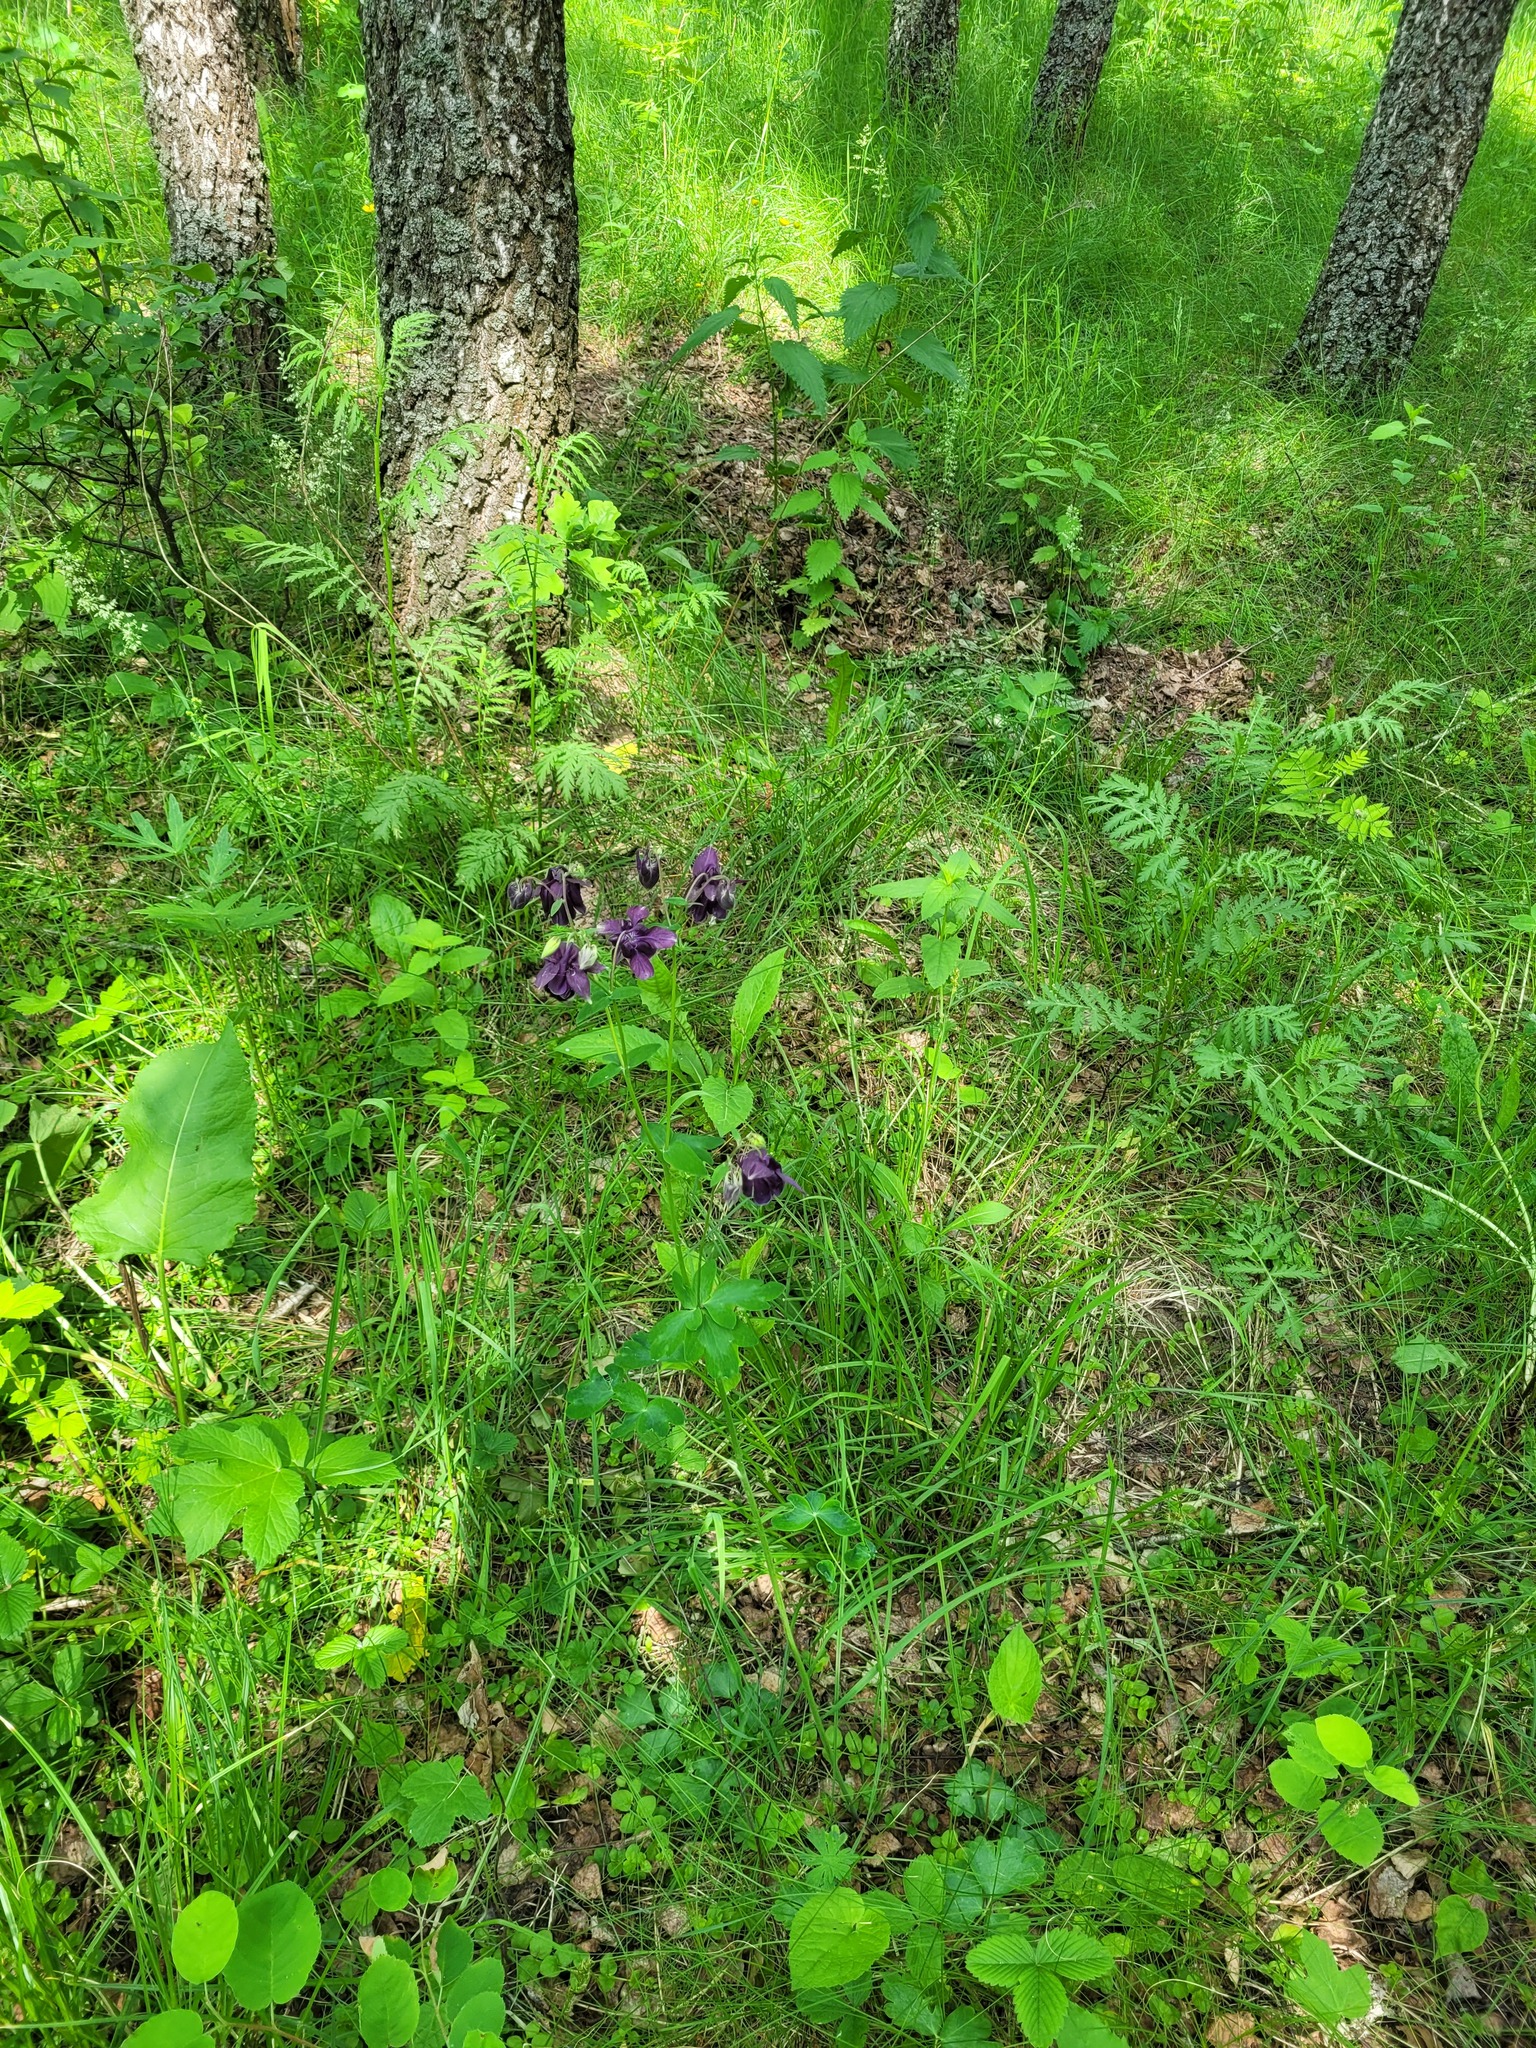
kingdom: Plantae
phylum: Tracheophyta
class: Magnoliopsida
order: Ranunculales
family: Ranunculaceae
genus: Aquilegia
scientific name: Aquilegia vulgaris
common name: Columbine
